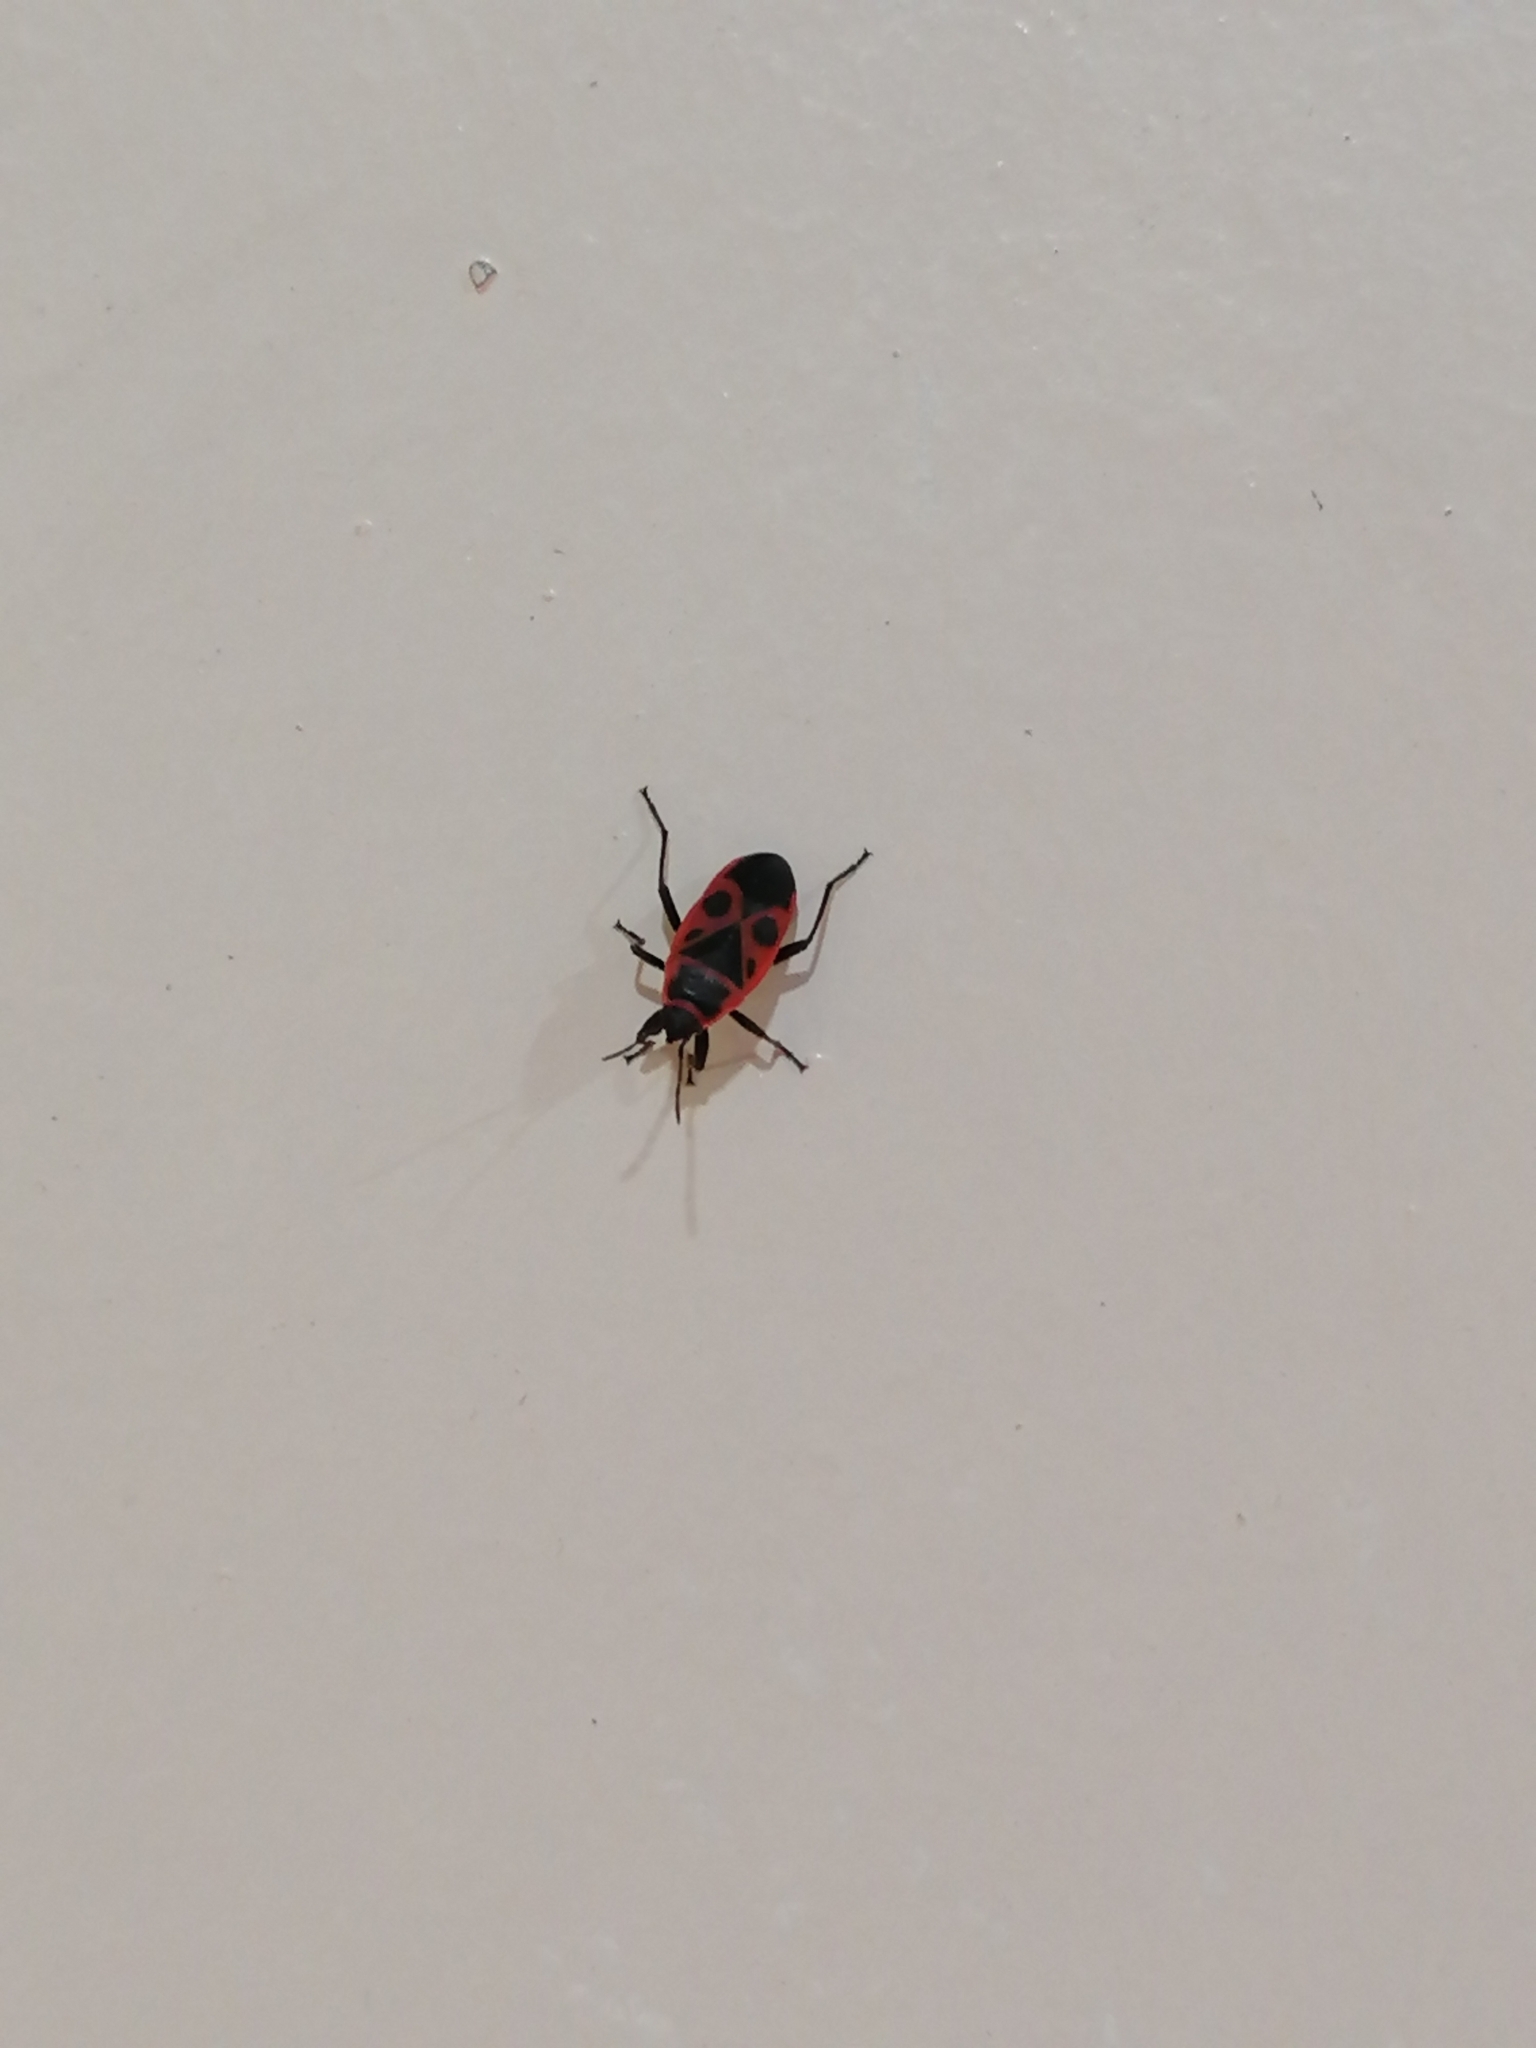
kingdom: Animalia
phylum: Arthropoda
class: Insecta
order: Hemiptera
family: Pyrrhocoridae
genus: Pyrrhocoris
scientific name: Pyrrhocoris apterus
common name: Firebug
